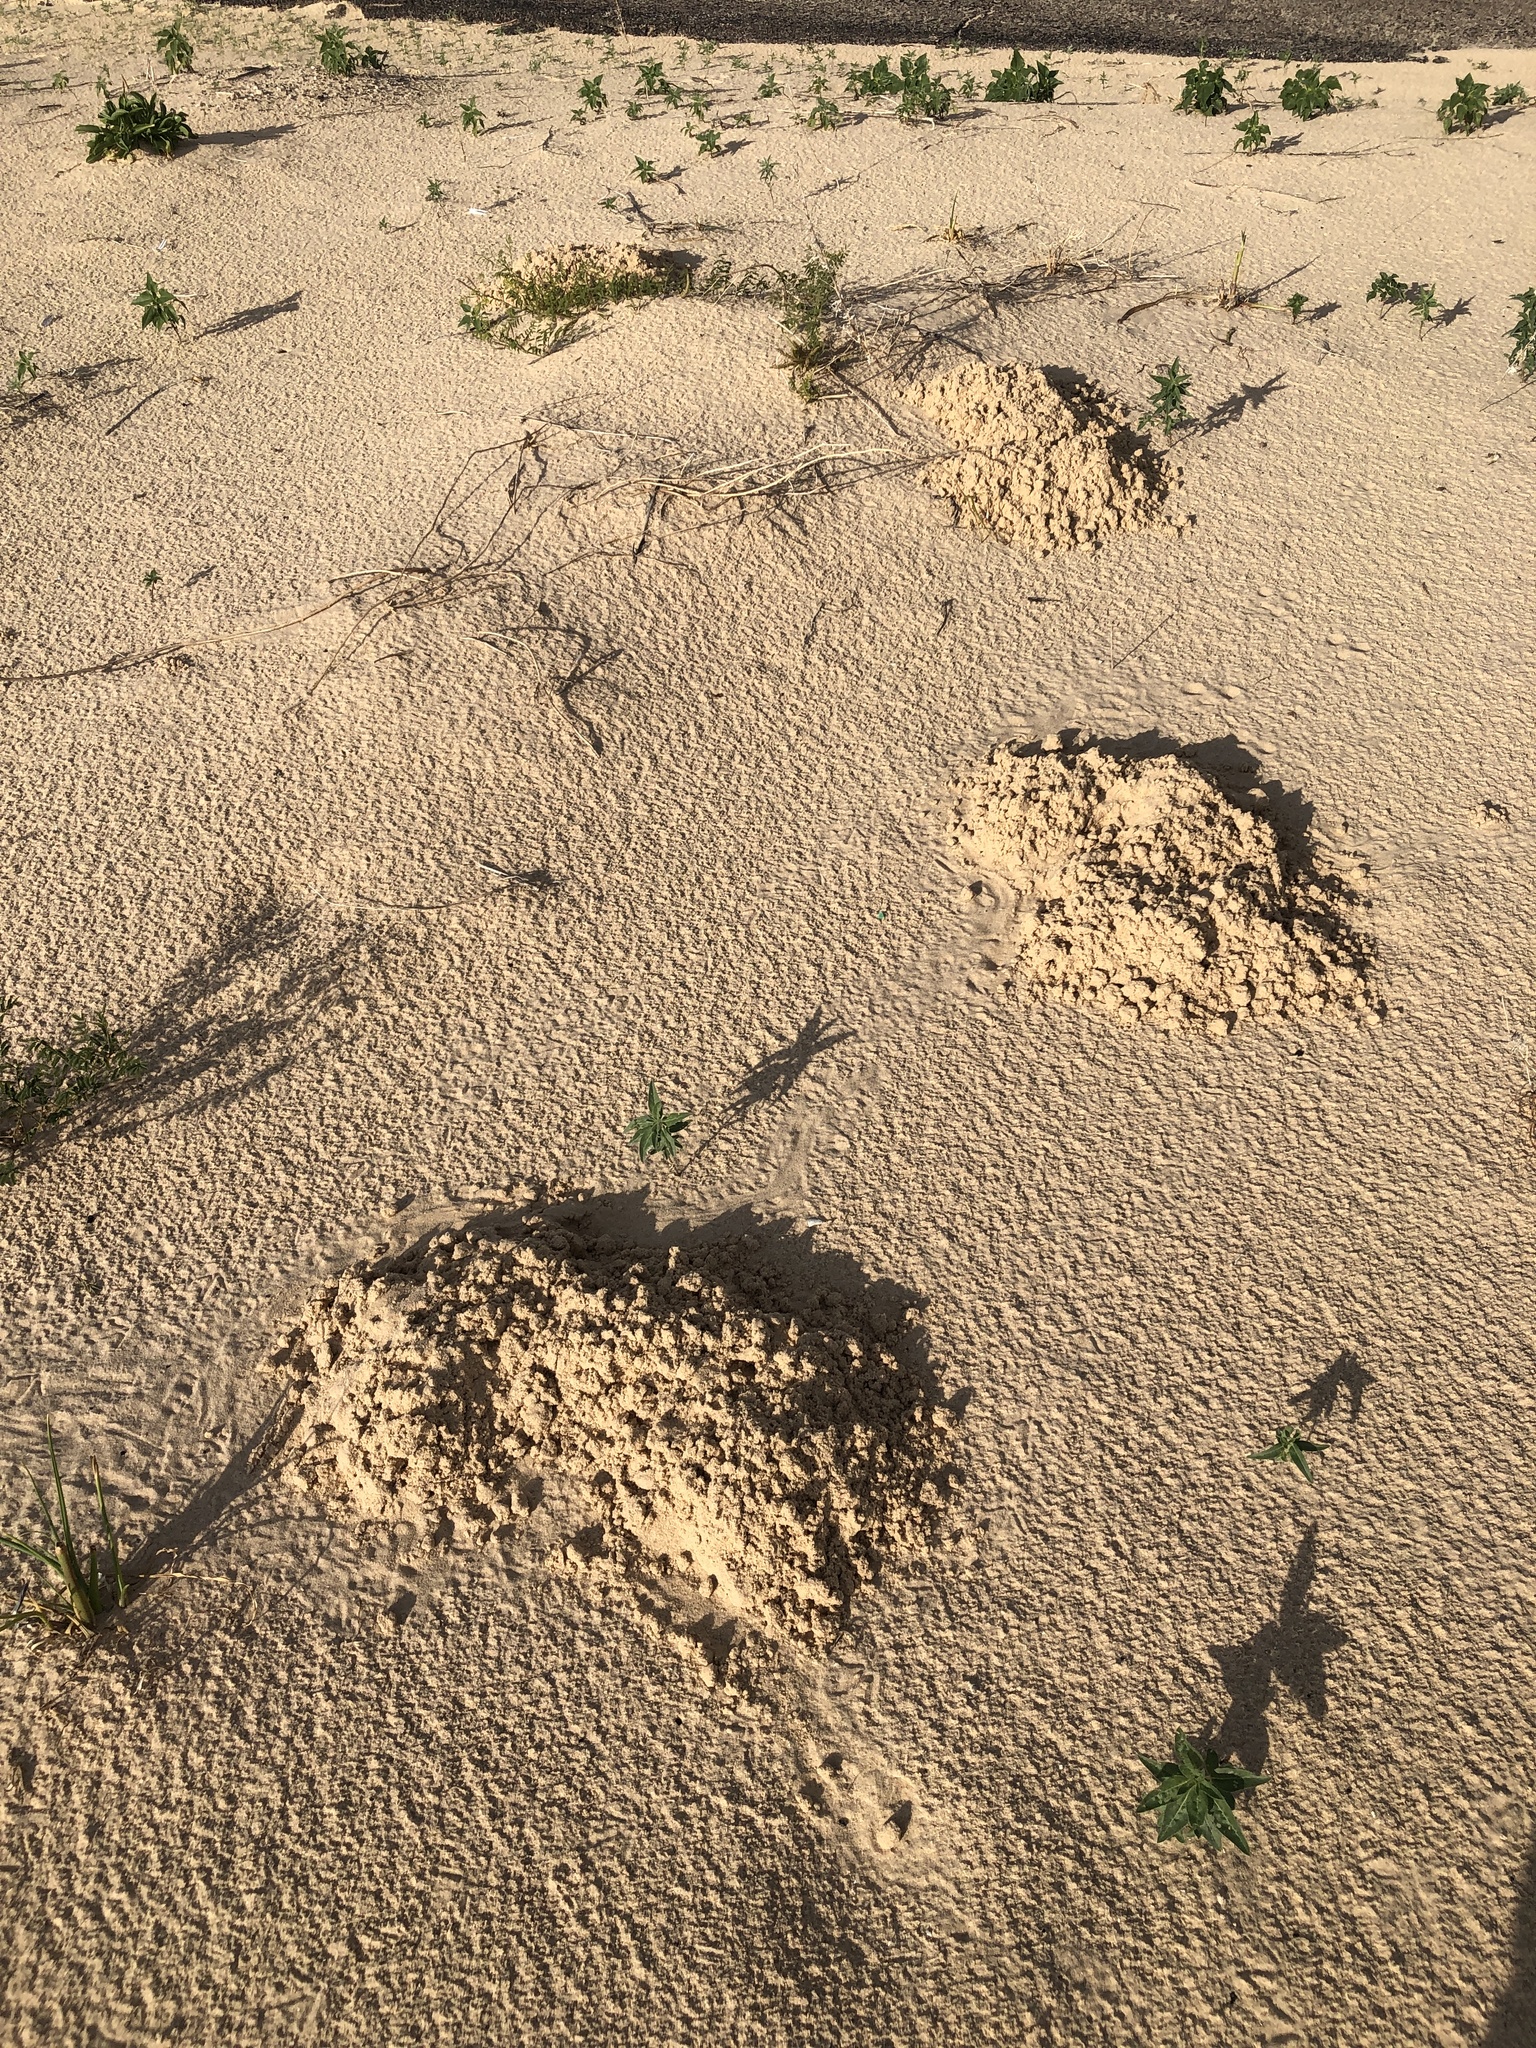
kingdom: Animalia
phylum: Chordata
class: Mammalia
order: Rodentia
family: Geomyidae
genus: Geomys
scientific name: Geomys knoxjonesi
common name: Knox jones's pocket gopher
